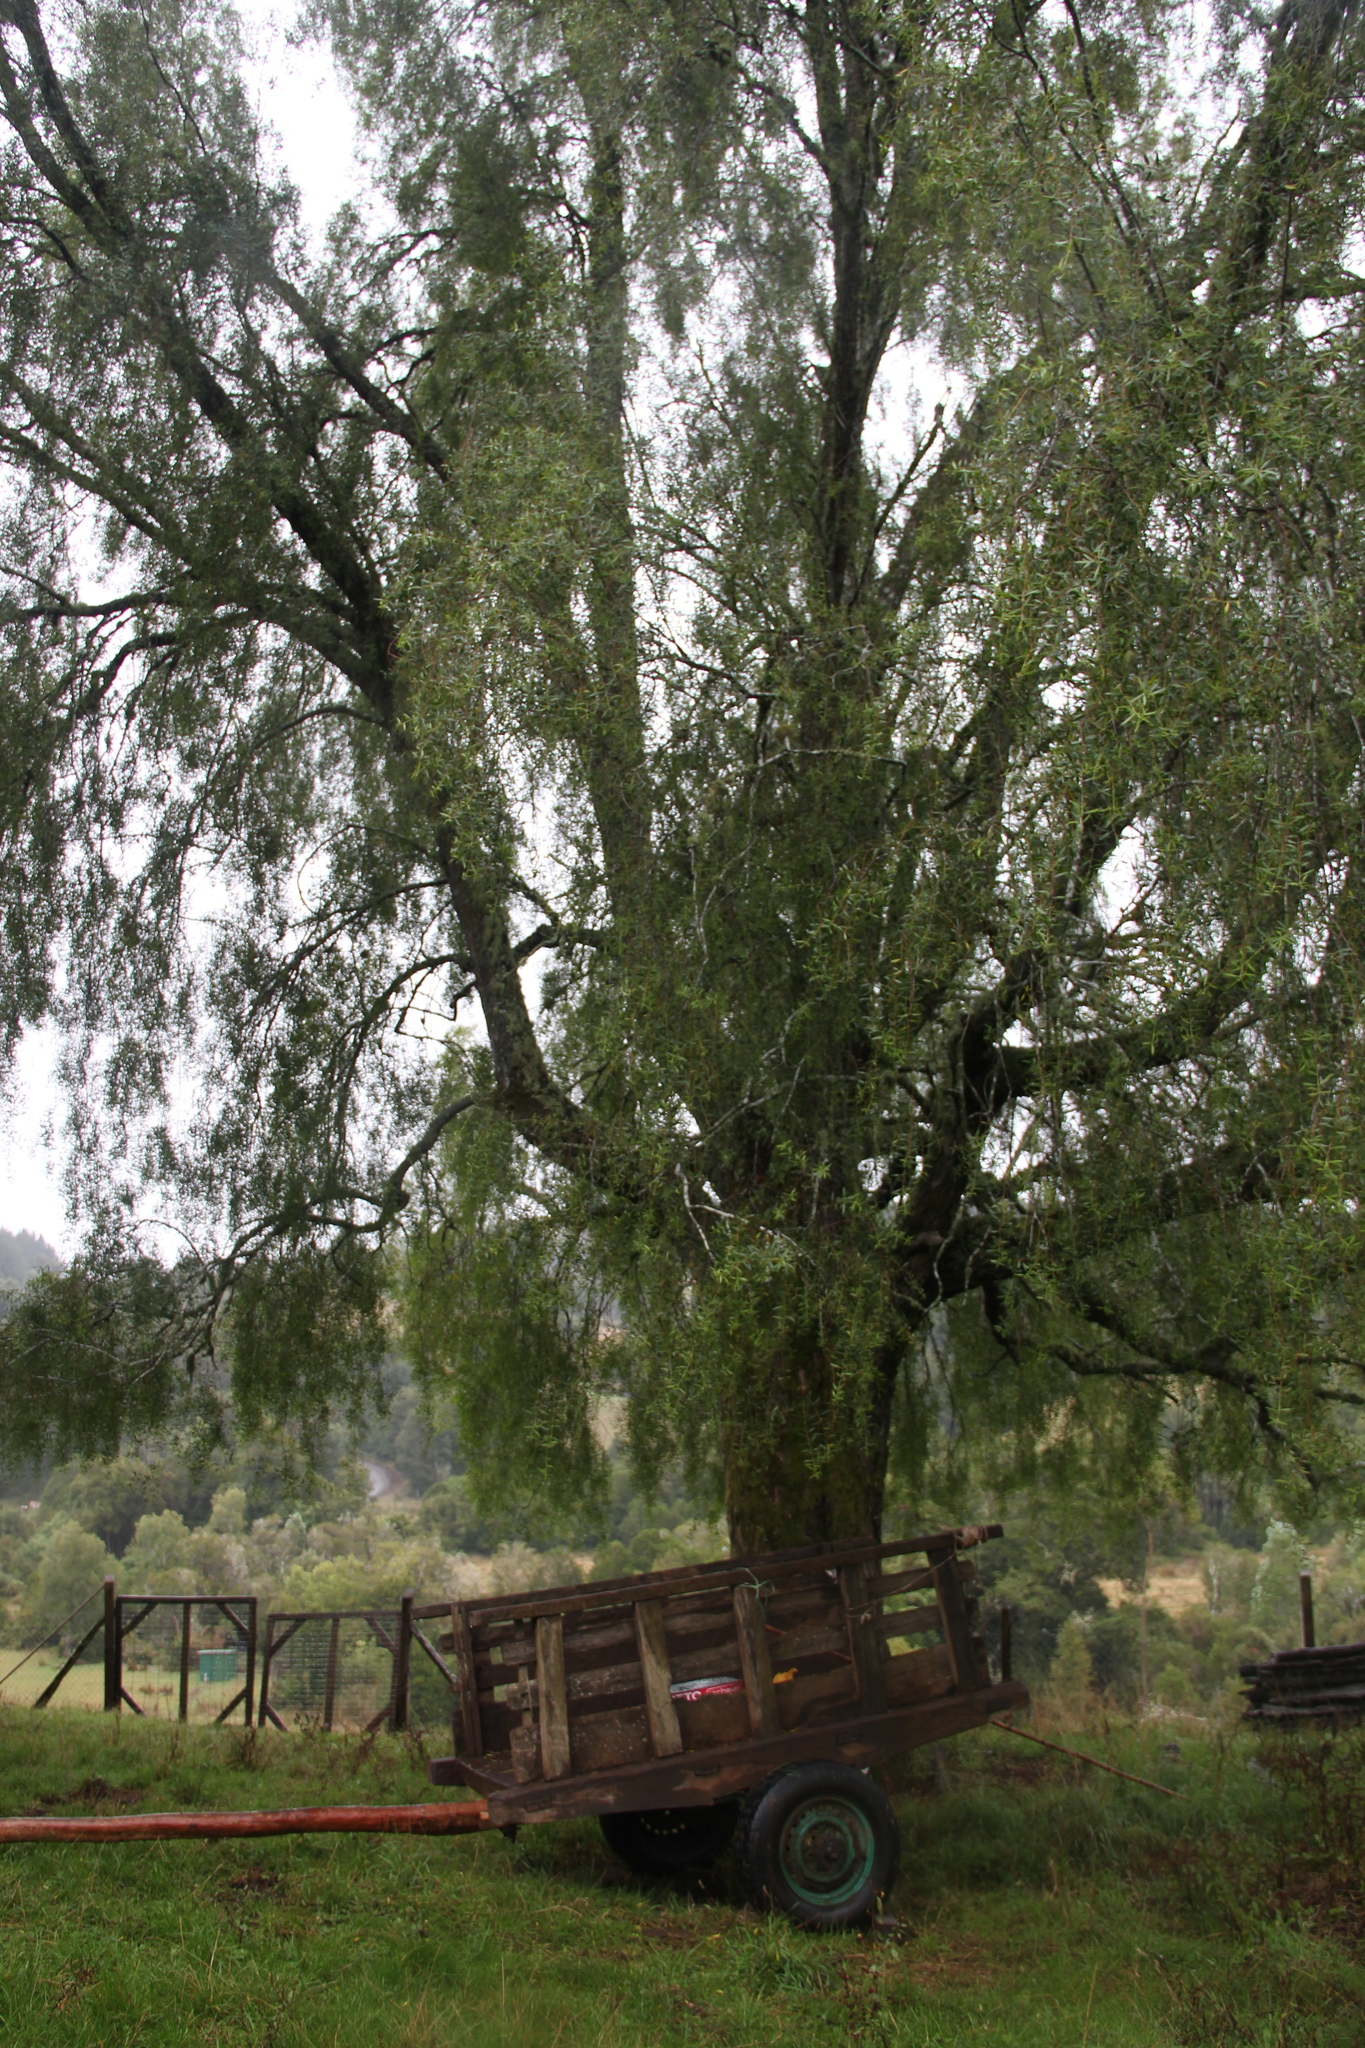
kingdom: Plantae
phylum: Tracheophyta
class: Magnoliopsida
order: Celastrales
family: Celastraceae
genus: Maytenus
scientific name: Maytenus boaria
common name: Mayten
